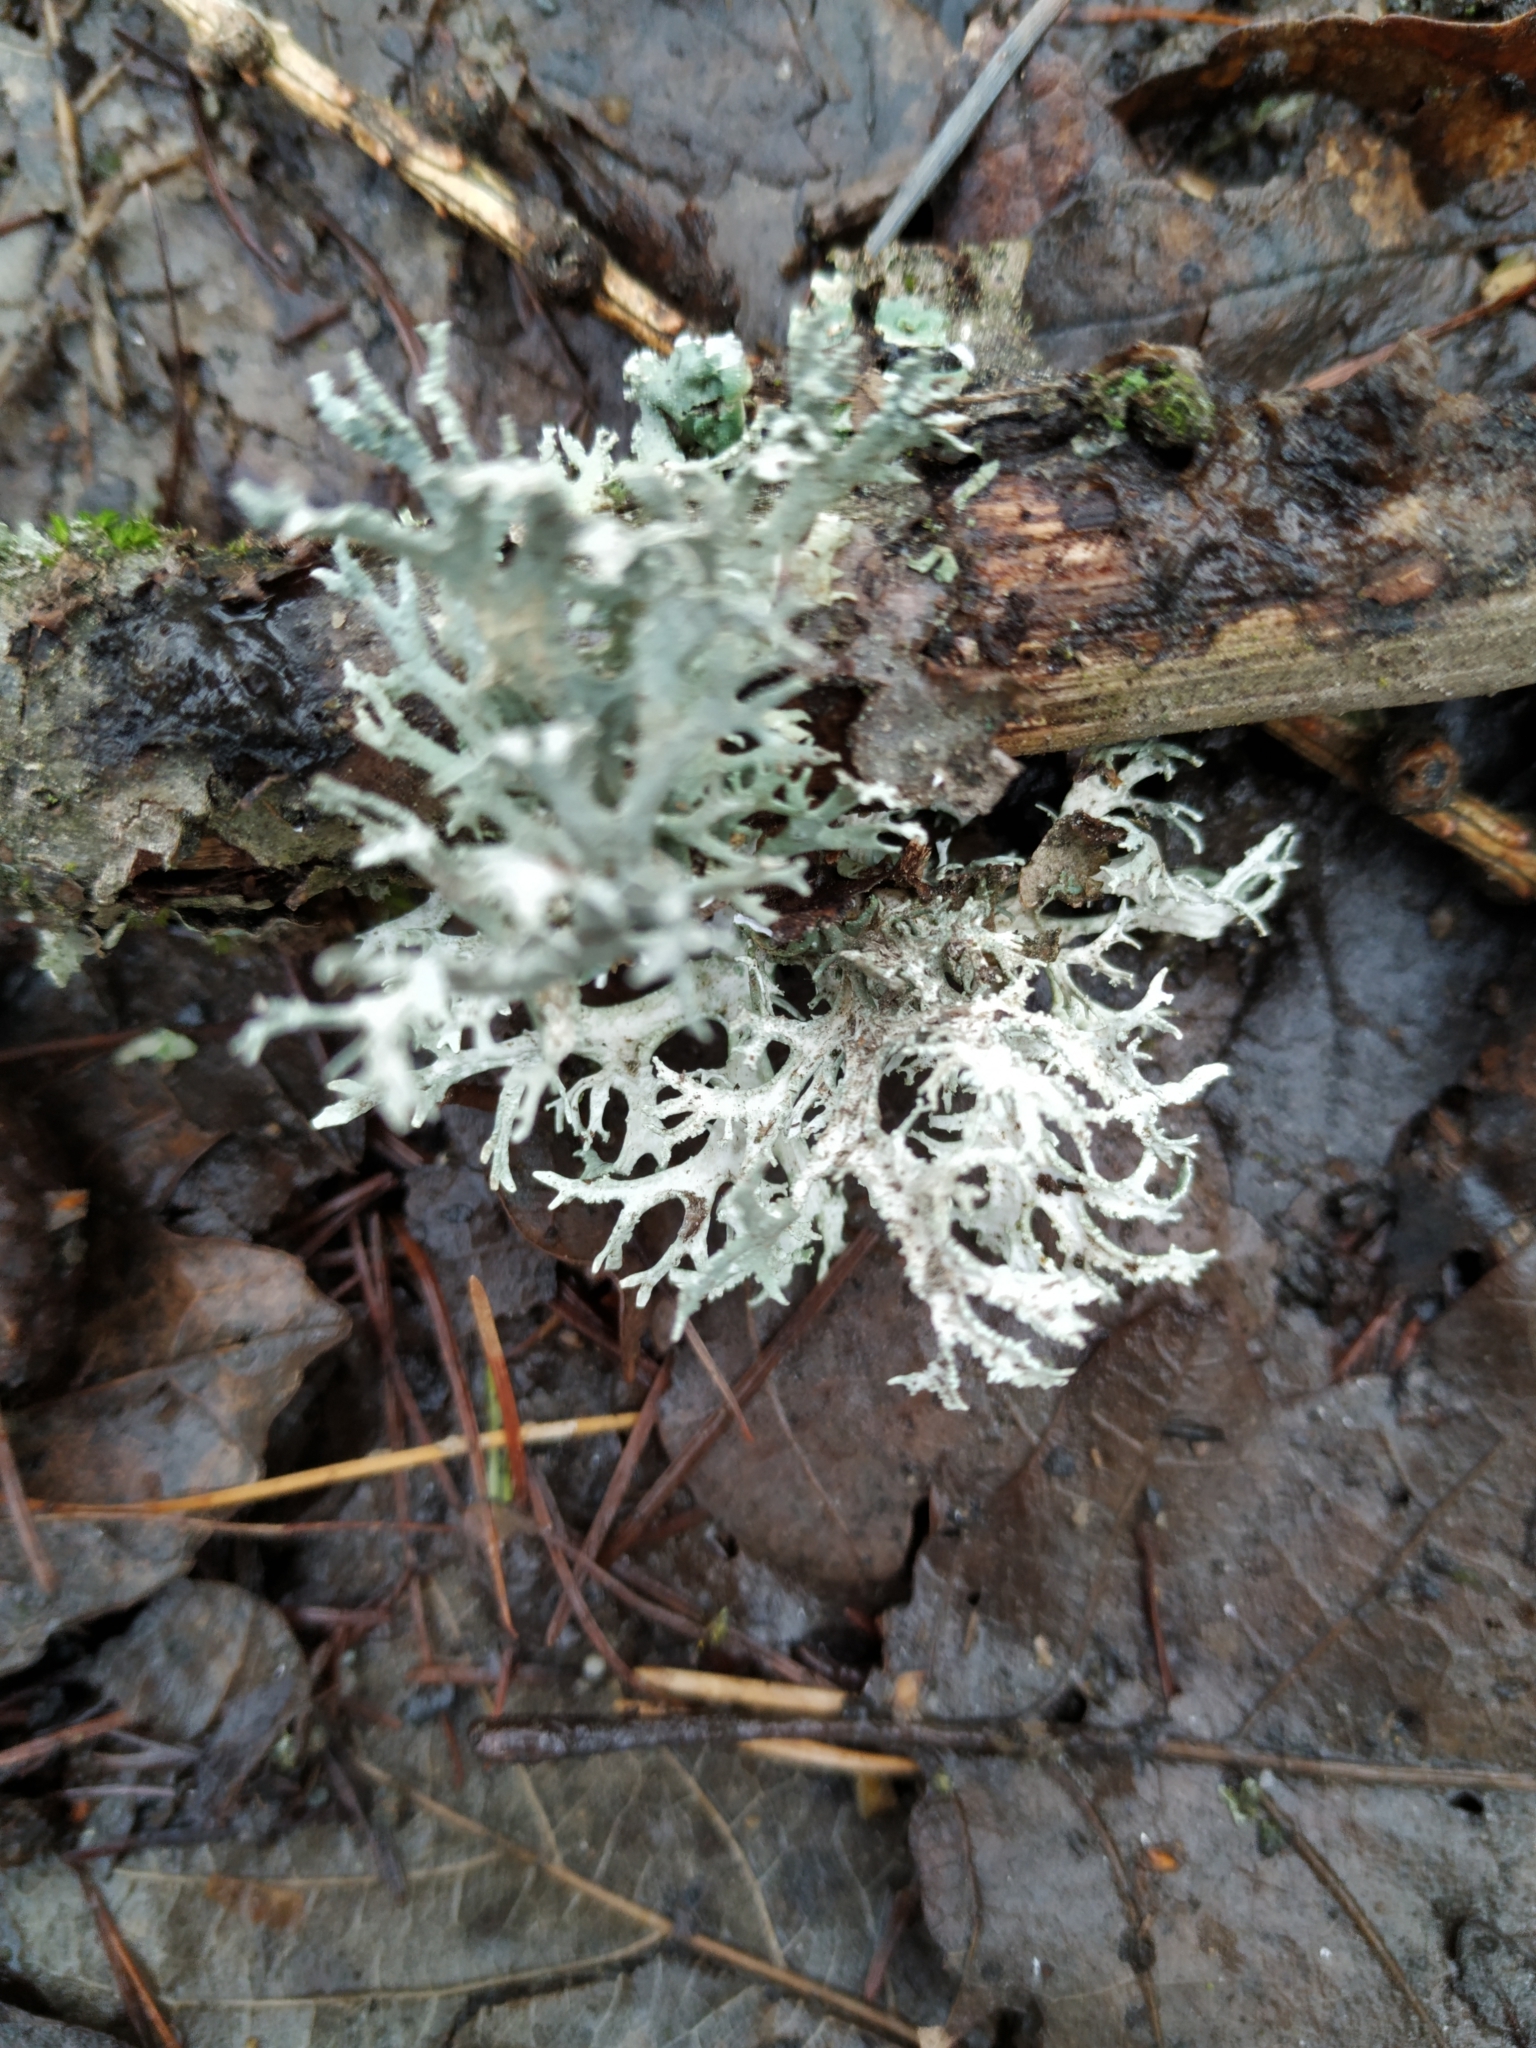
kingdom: Fungi
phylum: Ascomycota
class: Lecanoromycetes
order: Lecanorales
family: Parmeliaceae
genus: Evernia
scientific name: Evernia prunastri
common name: Oak moss
